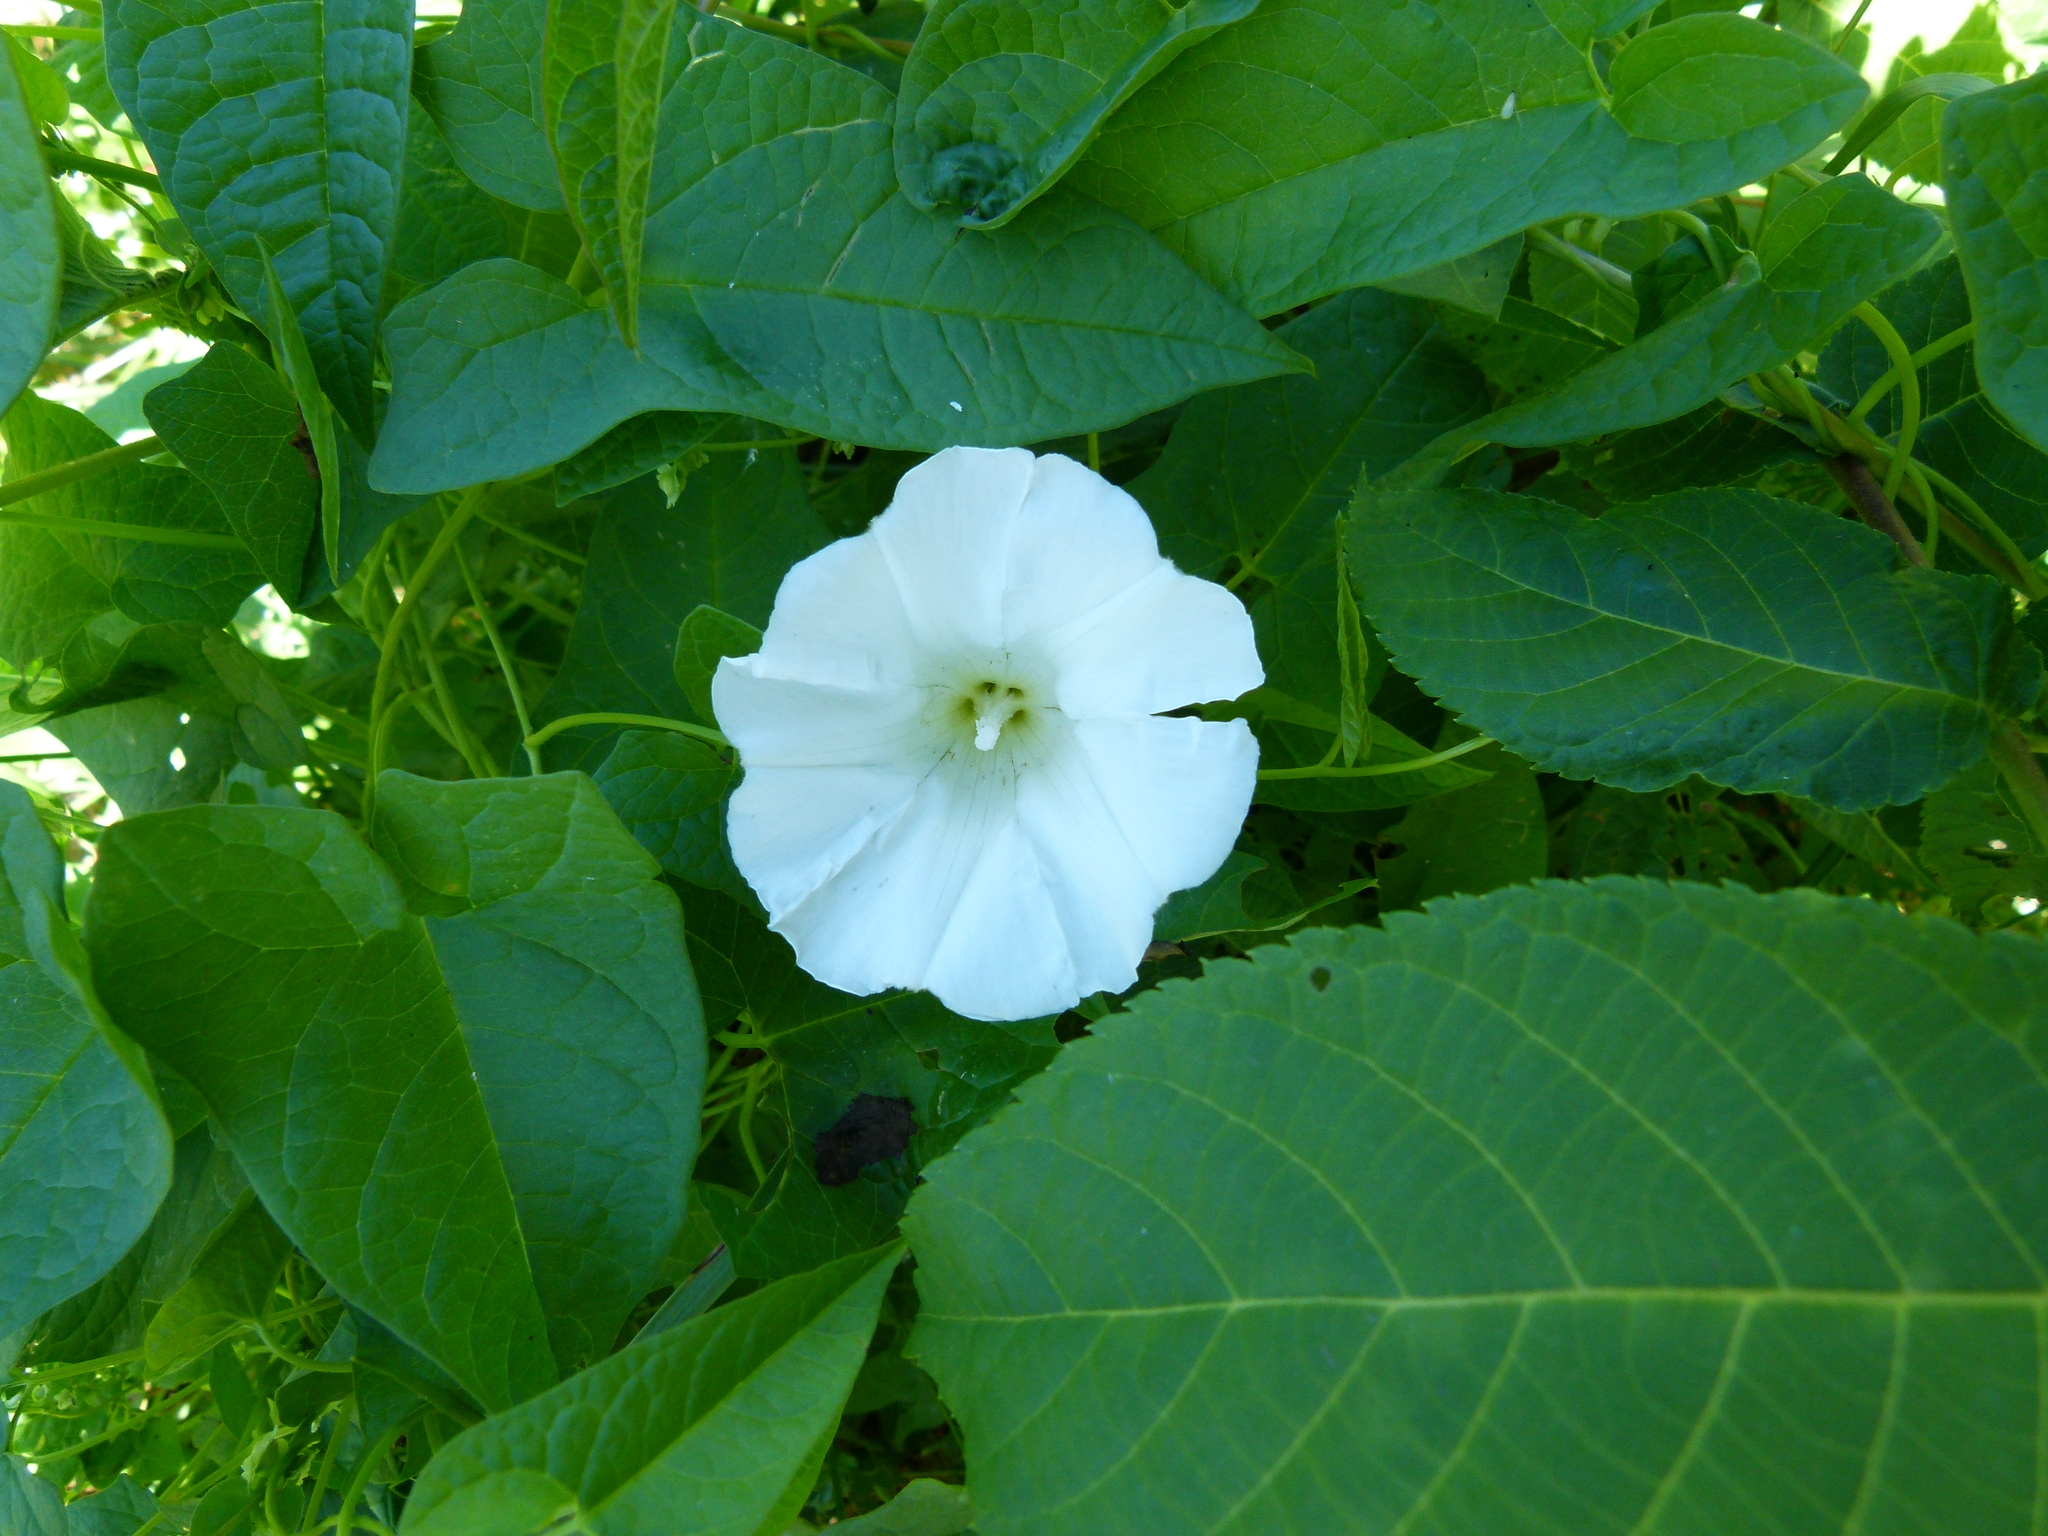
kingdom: Plantae
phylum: Tracheophyta
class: Magnoliopsida
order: Solanales
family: Convolvulaceae
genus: Calystegia
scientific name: Calystegia sepium
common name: Hedge bindweed
